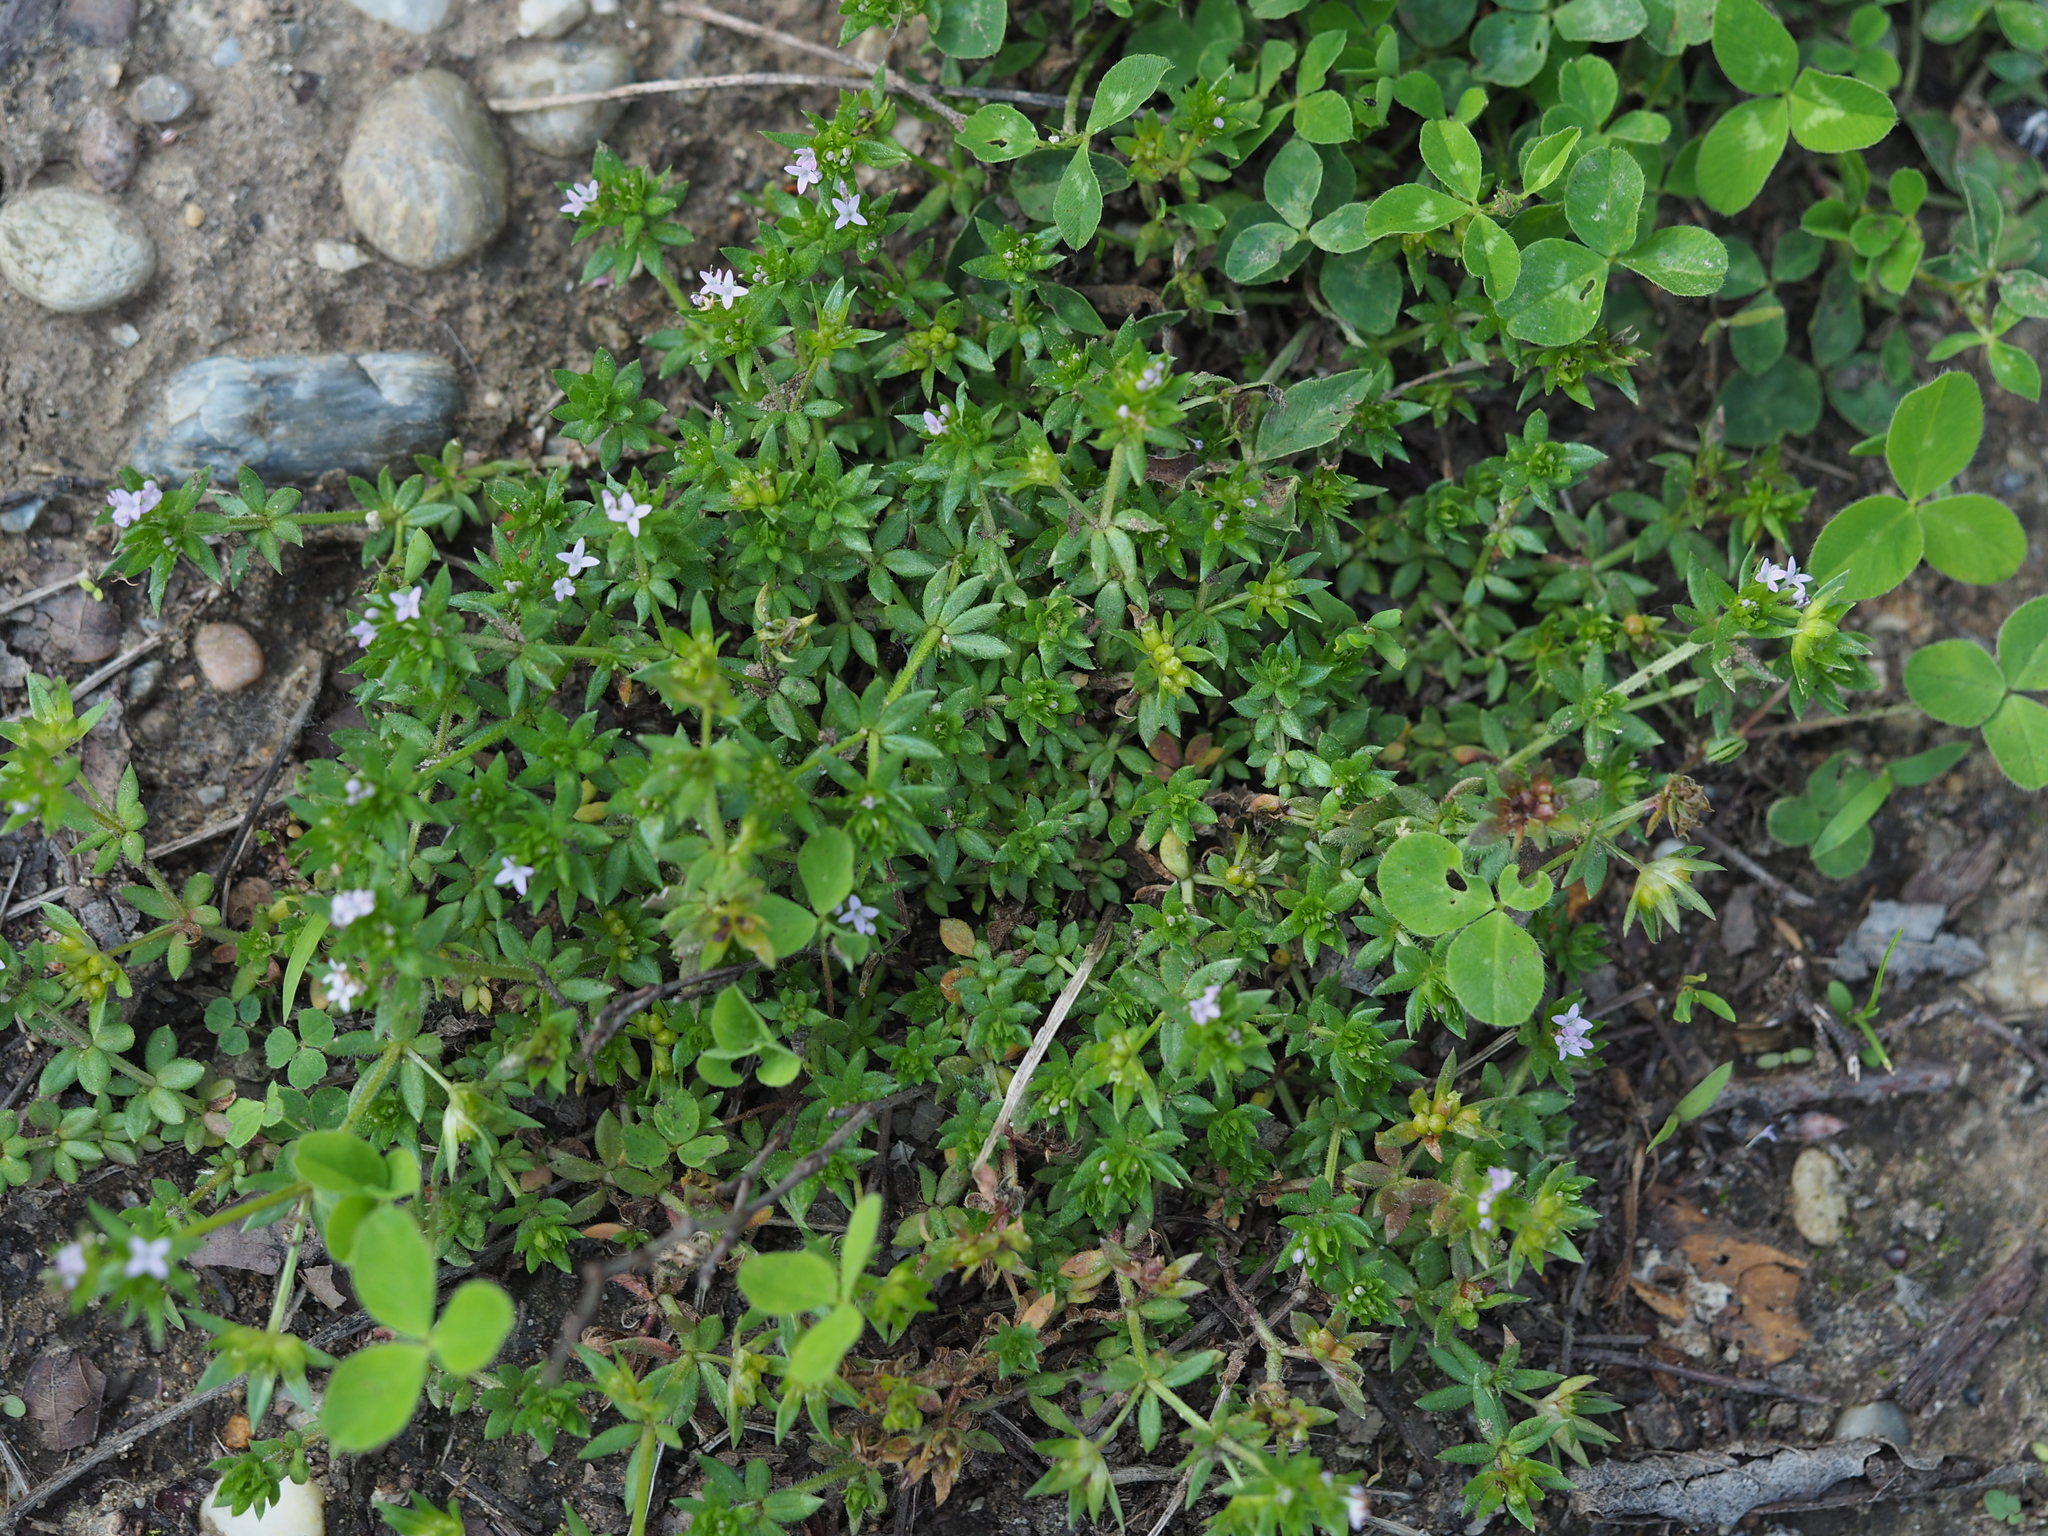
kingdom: Plantae
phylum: Tracheophyta
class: Magnoliopsida
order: Gentianales
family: Rubiaceae
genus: Sherardia
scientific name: Sherardia arvensis
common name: Field madder
